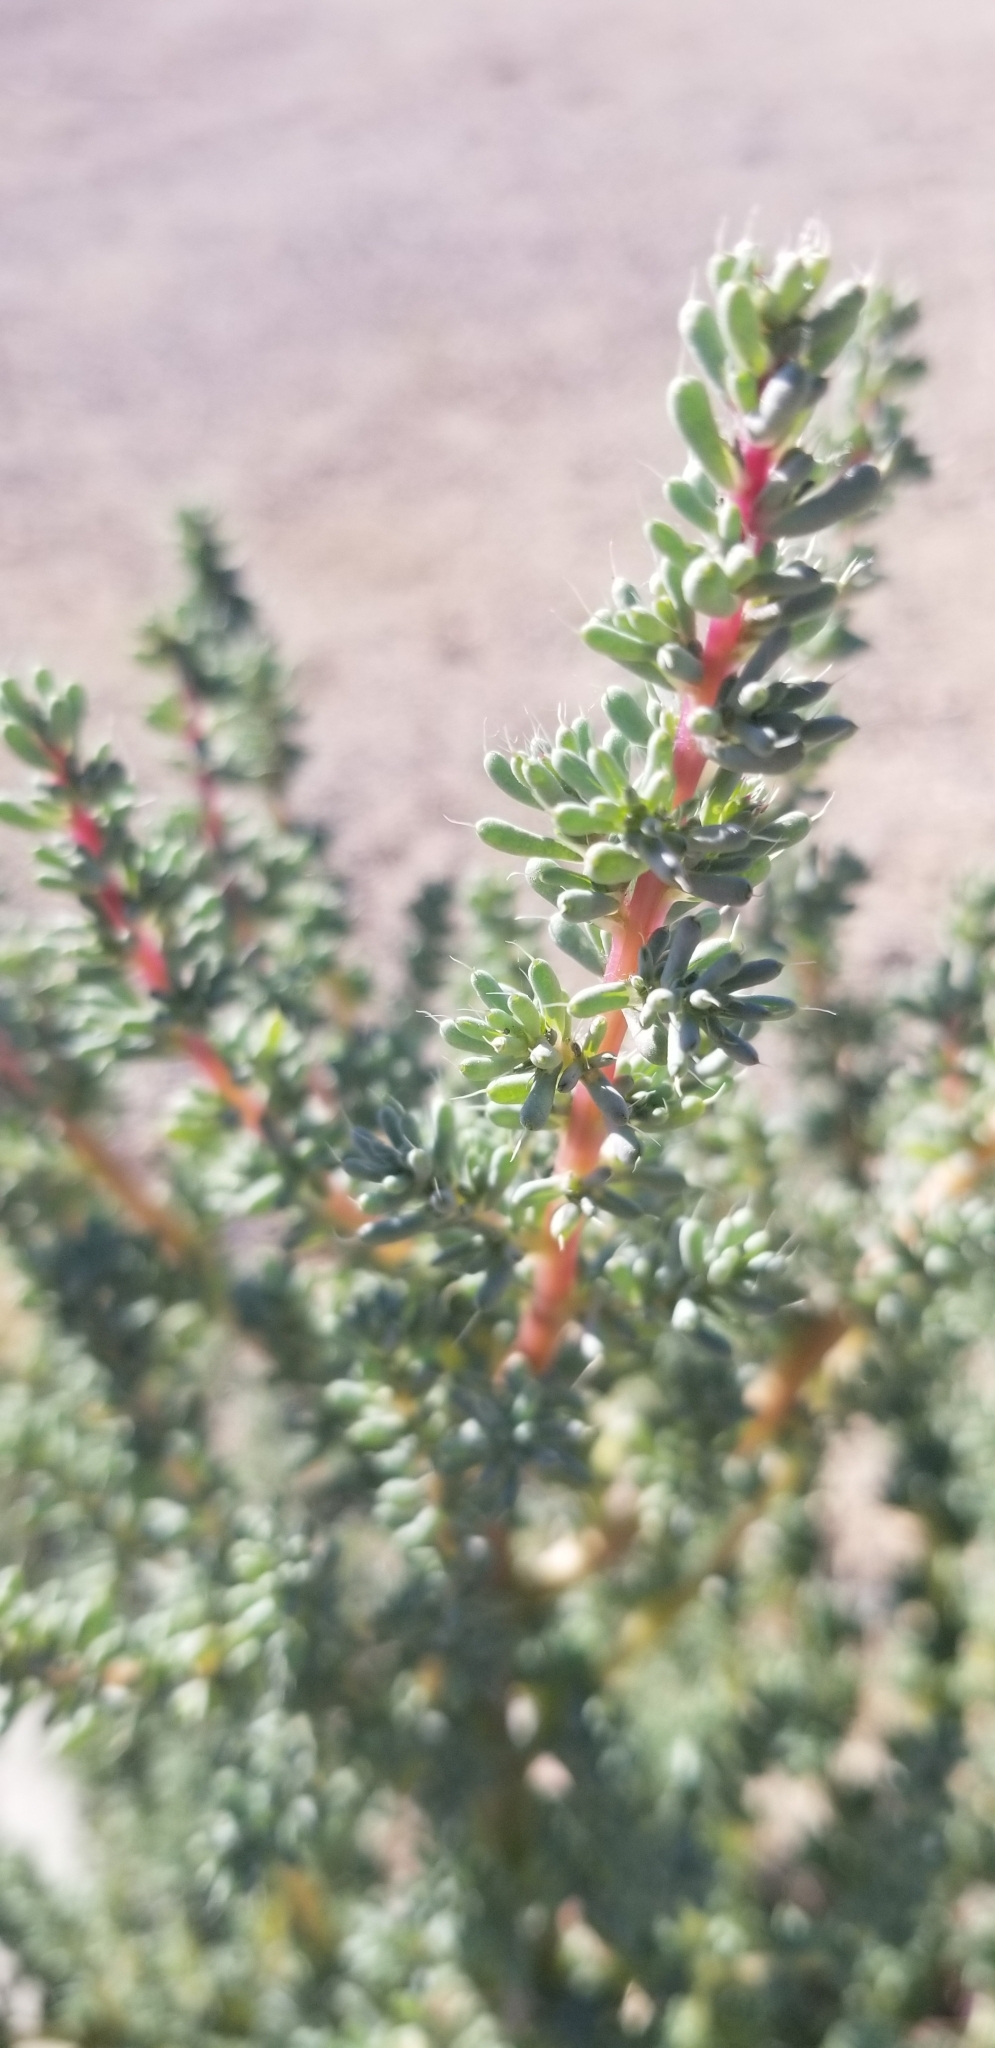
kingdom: Plantae
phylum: Tracheophyta
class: Magnoliopsida
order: Caryophyllales
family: Amaranthaceae
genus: Halogeton
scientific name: Halogeton glomeratus
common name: Saltlover
